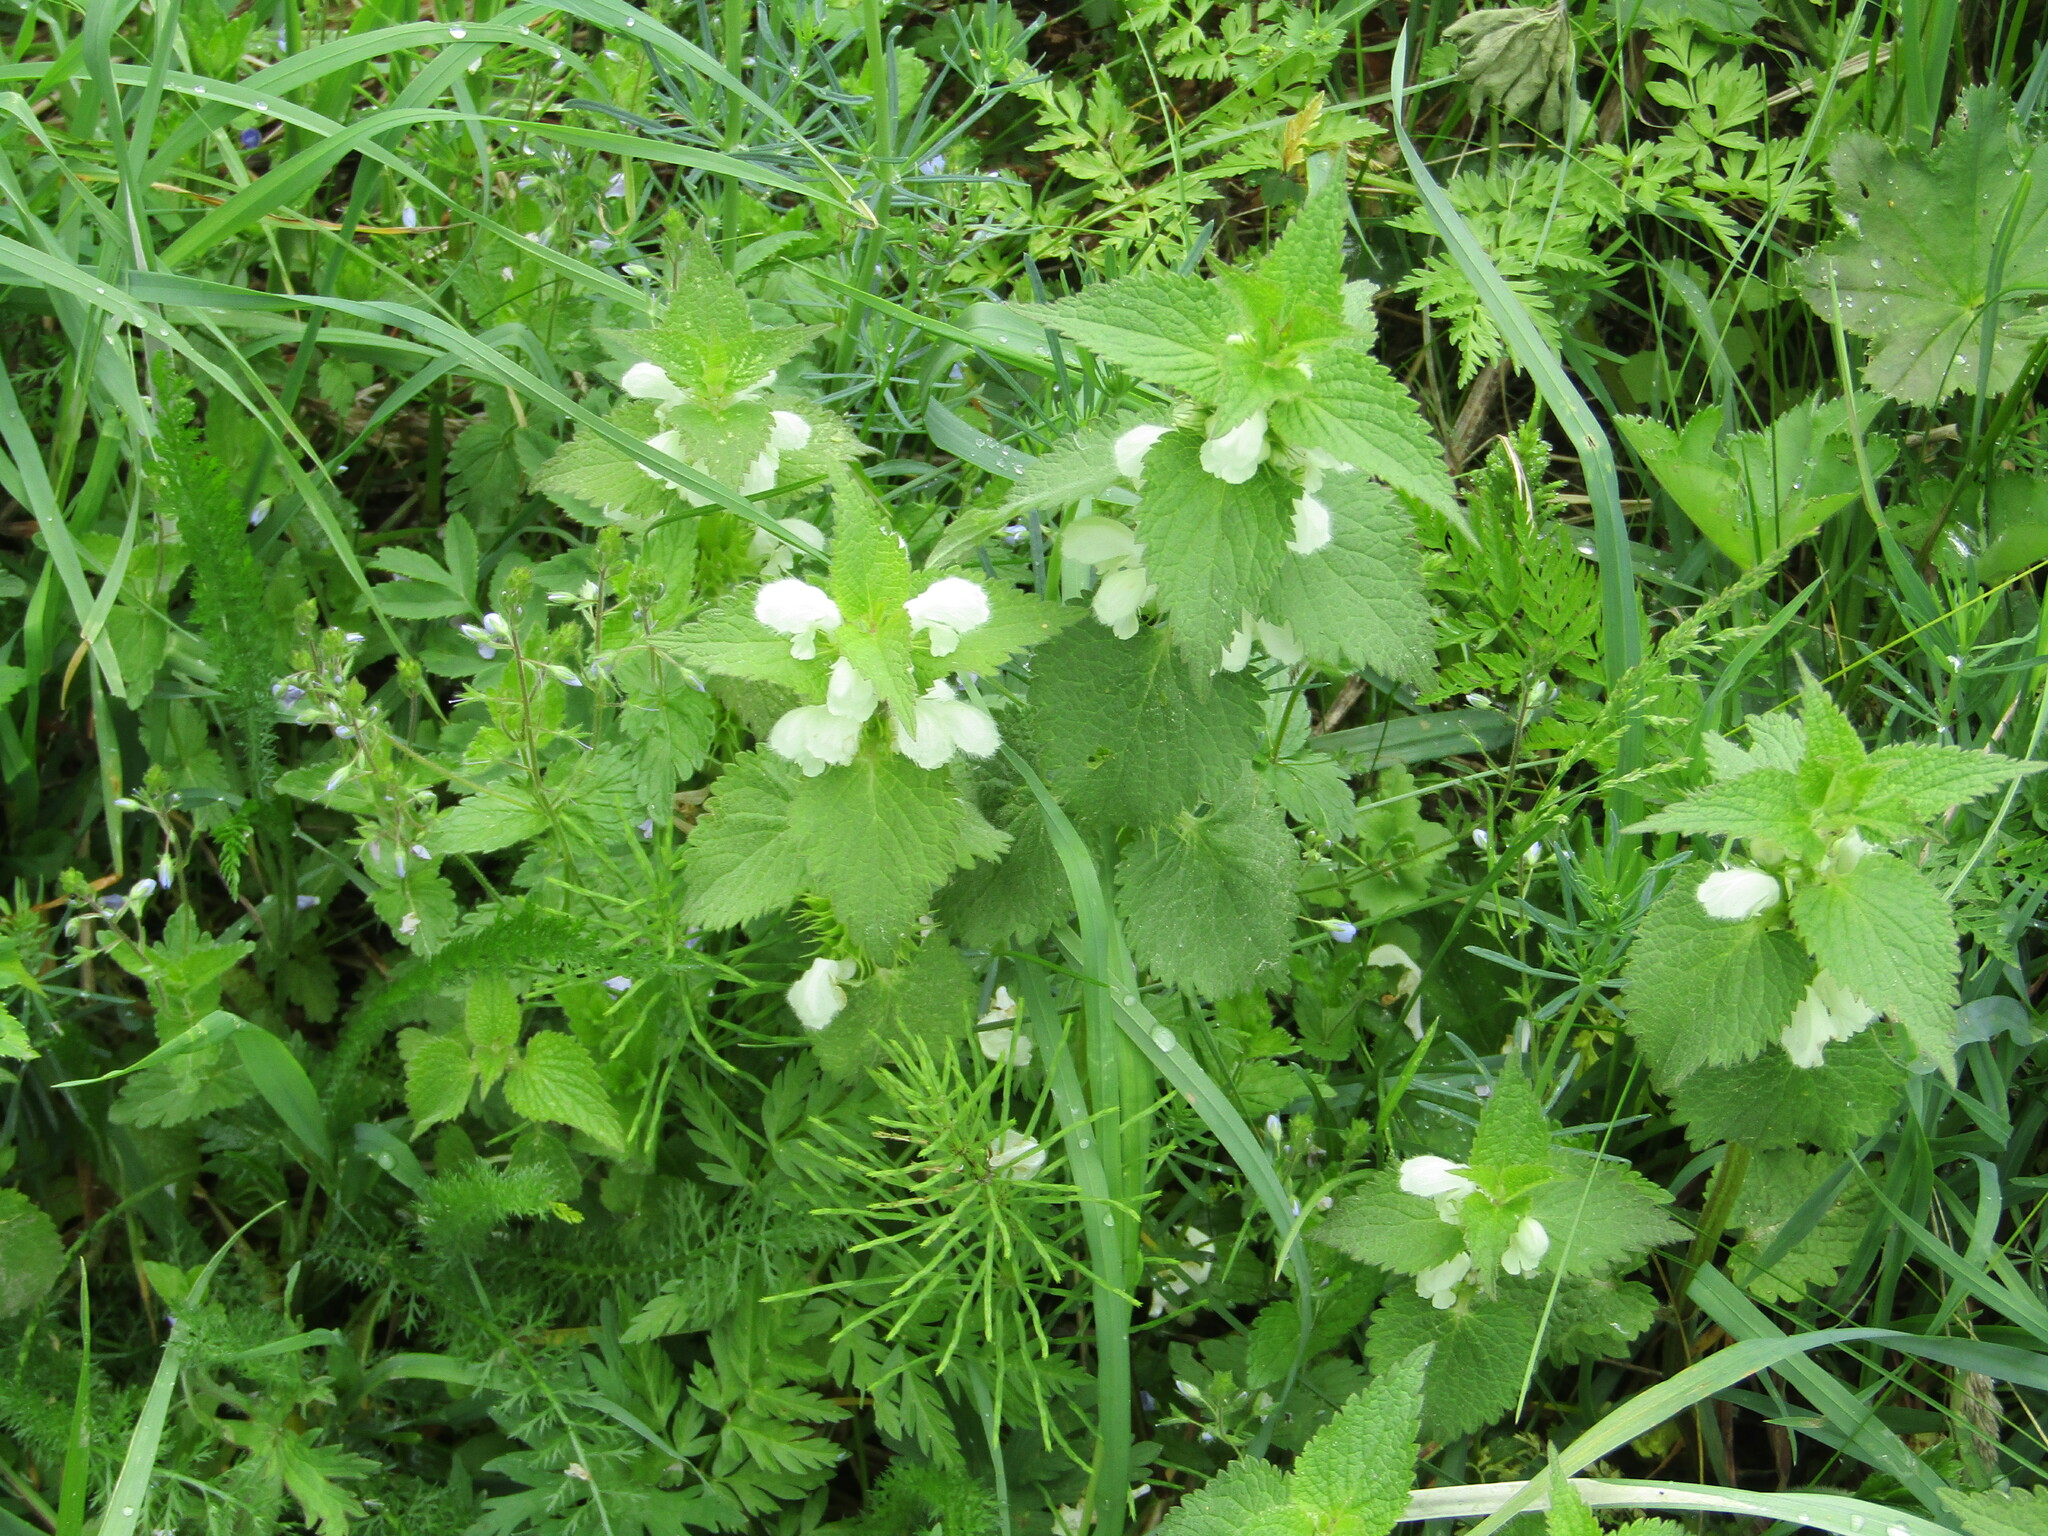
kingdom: Plantae
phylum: Tracheophyta
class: Magnoliopsida
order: Lamiales
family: Lamiaceae
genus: Lamium
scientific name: Lamium album
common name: White dead-nettle
